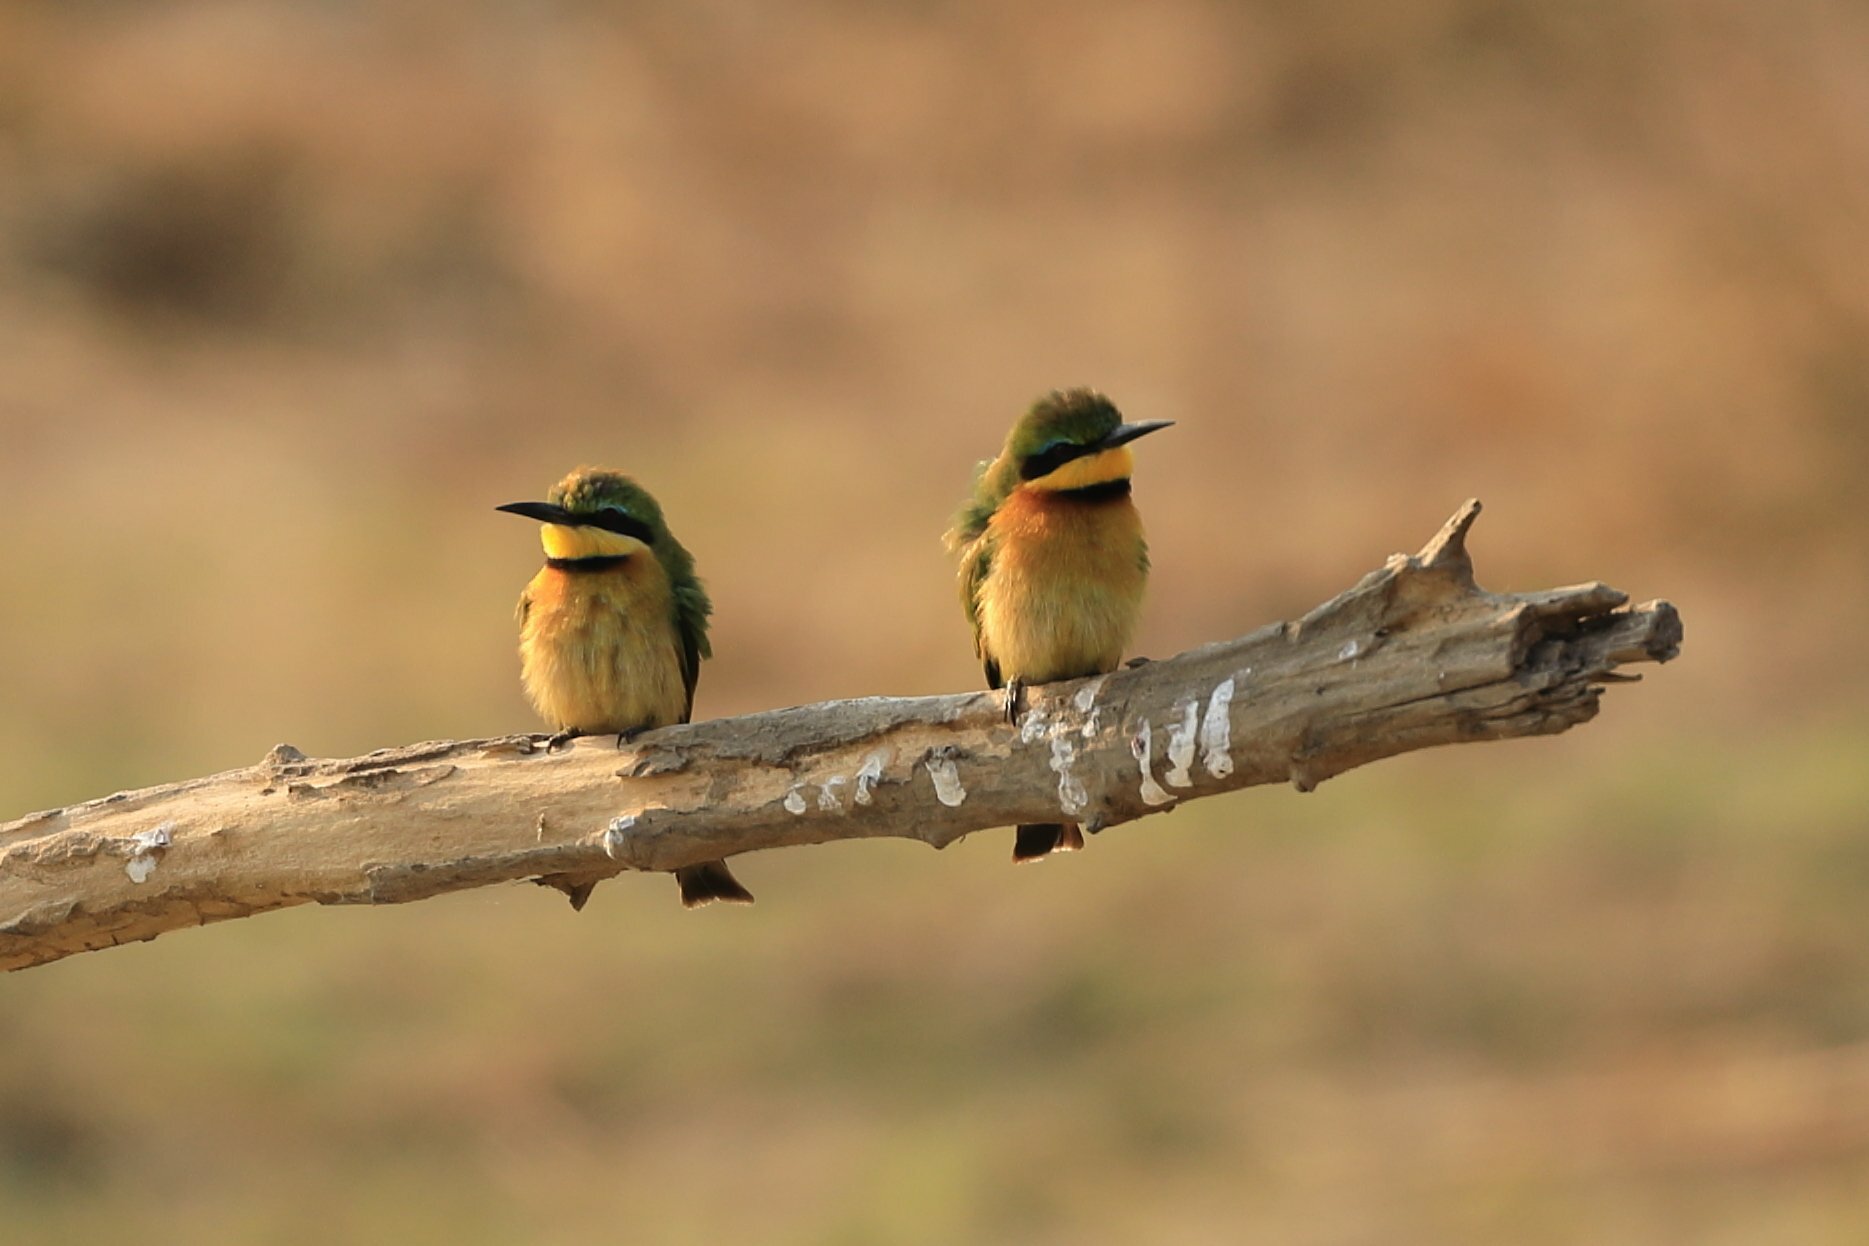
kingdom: Animalia
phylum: Chordata
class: Aves
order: Coraciiformes
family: Meropidae
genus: Merops
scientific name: Merops pusillus
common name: Little bee-eater
